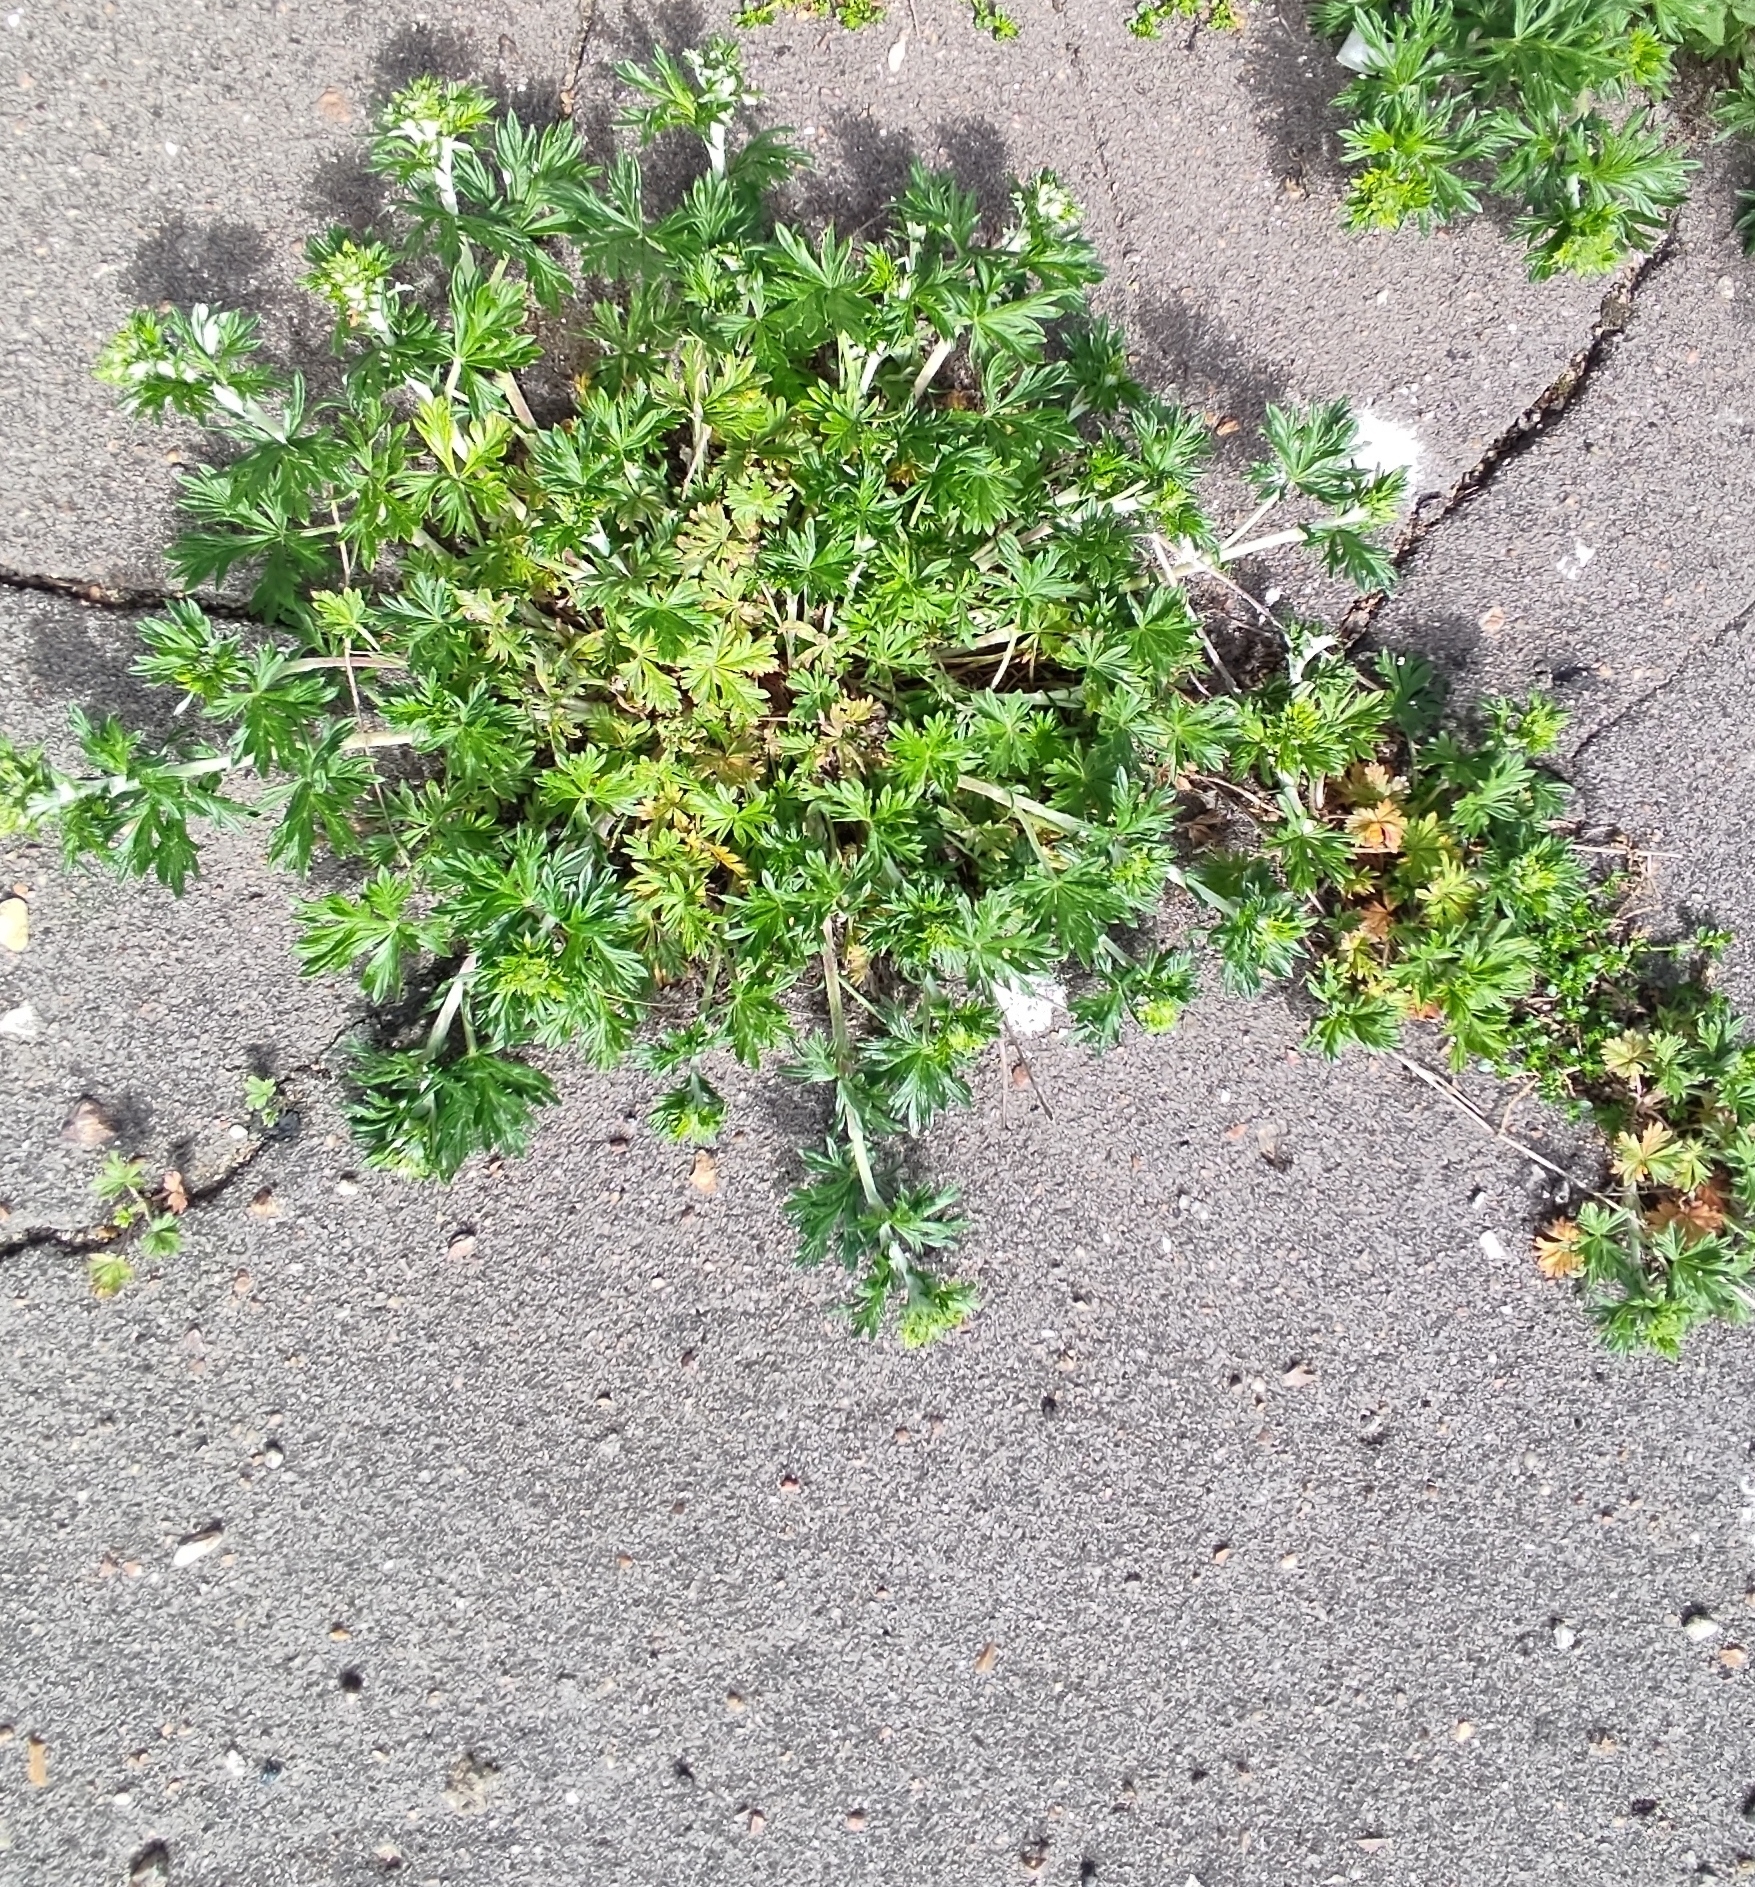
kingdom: Plantae
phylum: Tracheophyta
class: Magnoliopsida
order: Rosales
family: Rosaceae
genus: Potentilla
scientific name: Potentilla argentea
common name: Hoary cinquefoil
